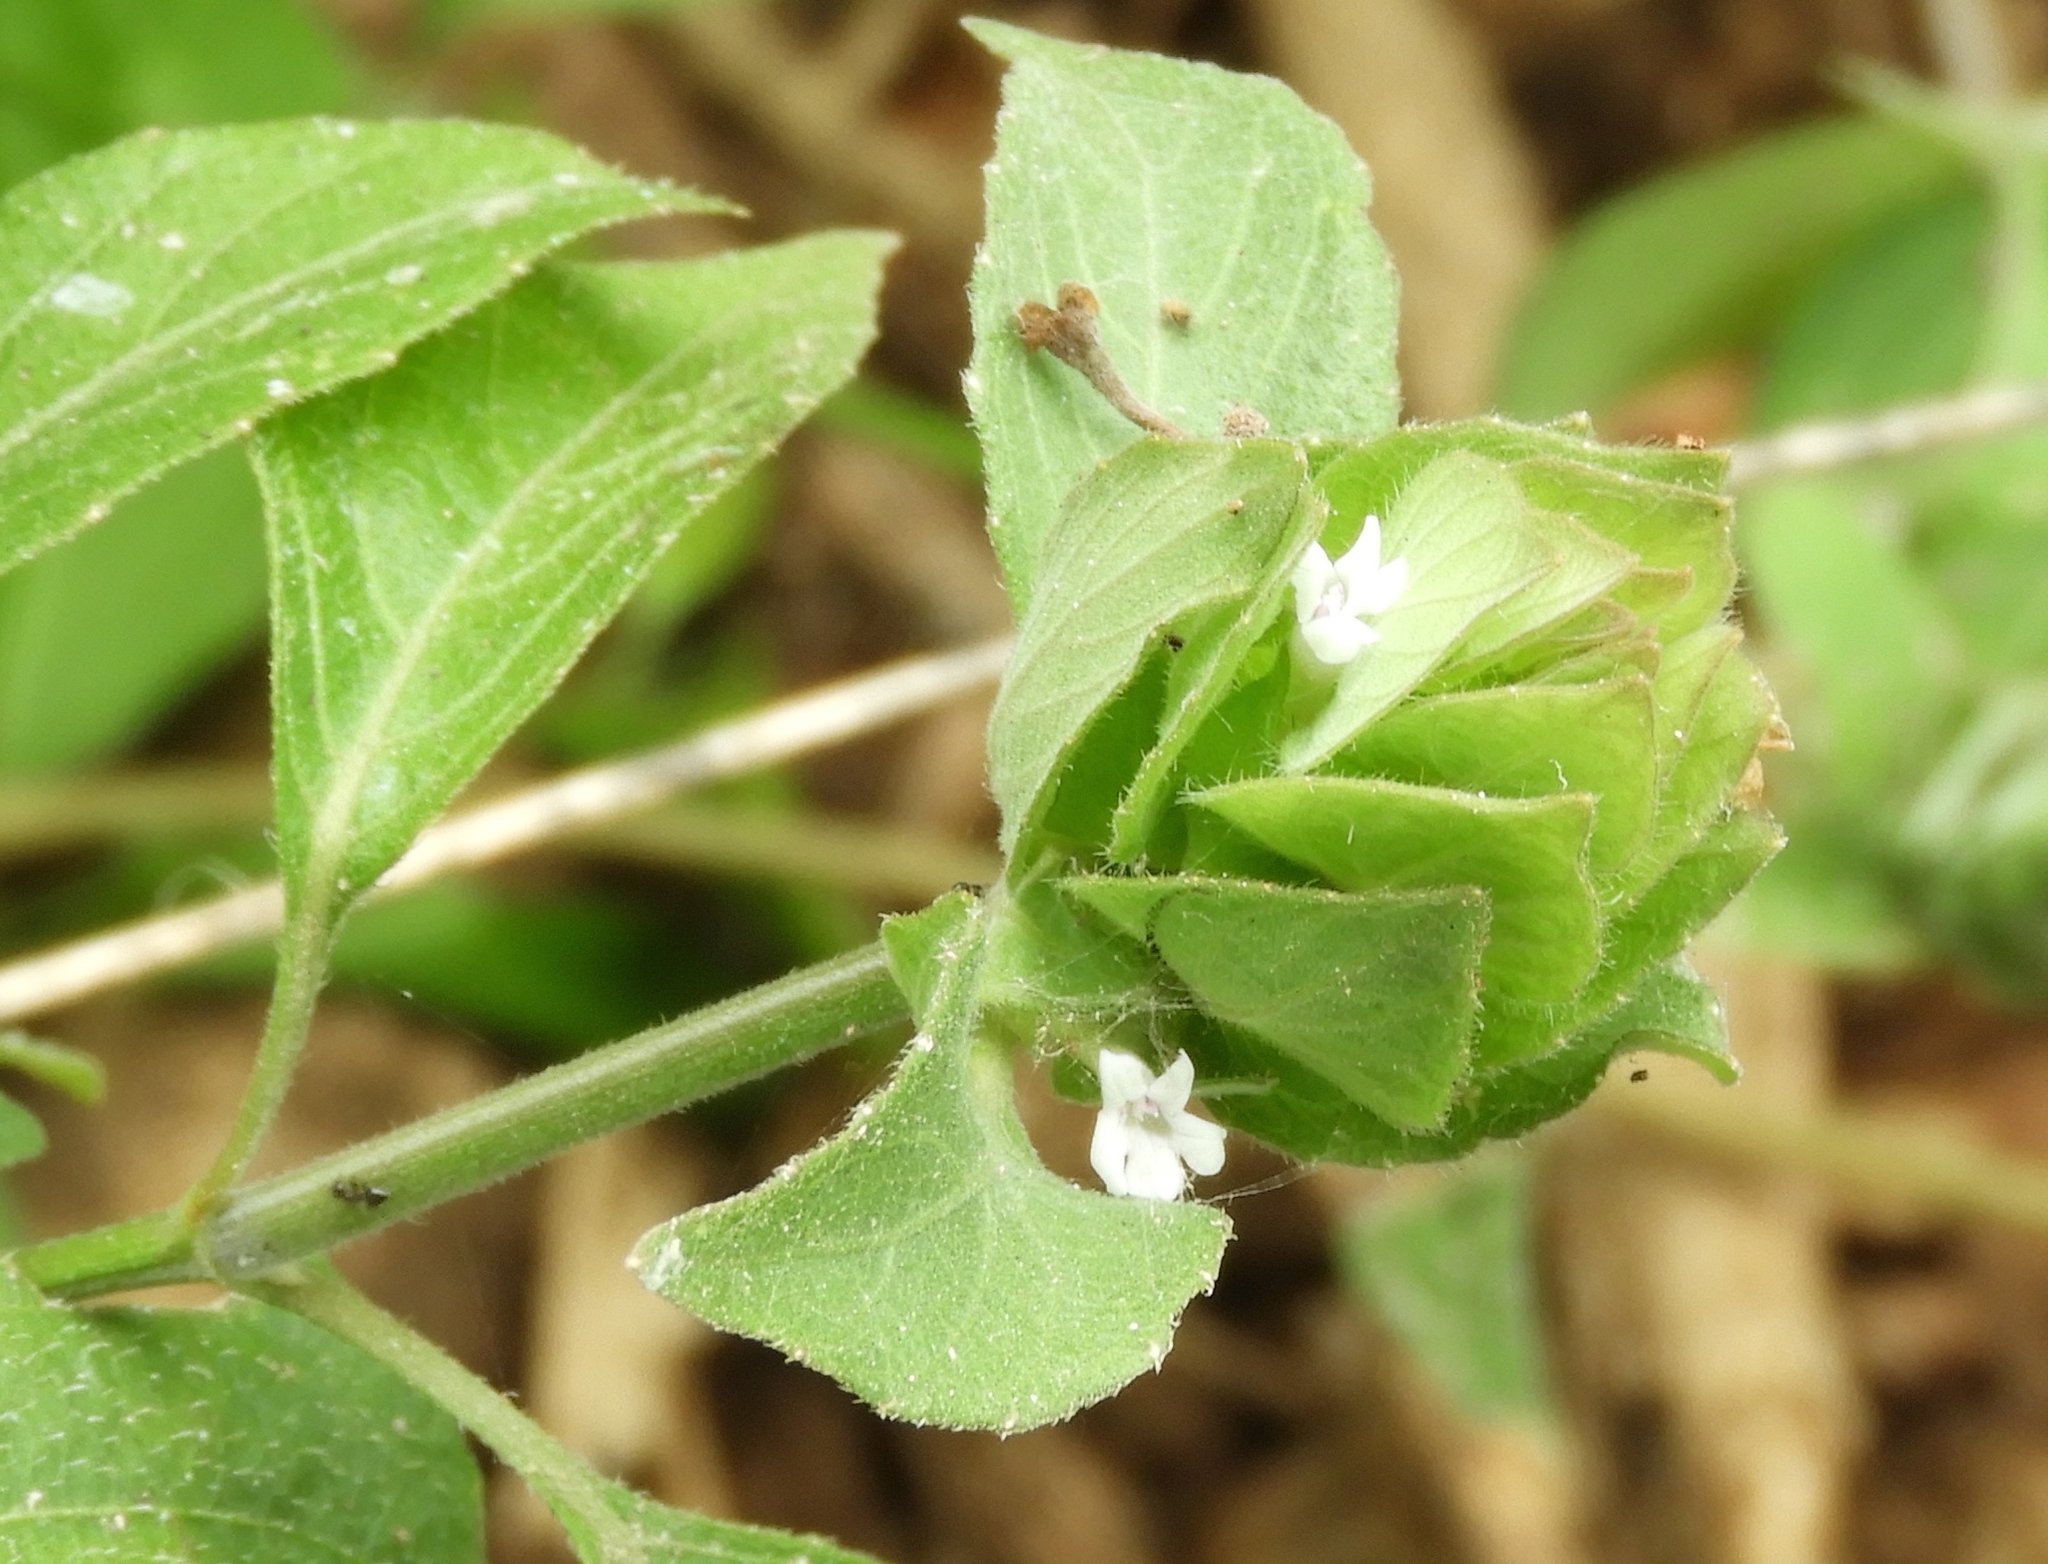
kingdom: Plantae
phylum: Tracheophyta
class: Magnoliopsida
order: Lamiales
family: Acanthaceae
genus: Ruellia
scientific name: Ruellia blechum
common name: Browne's blechum
